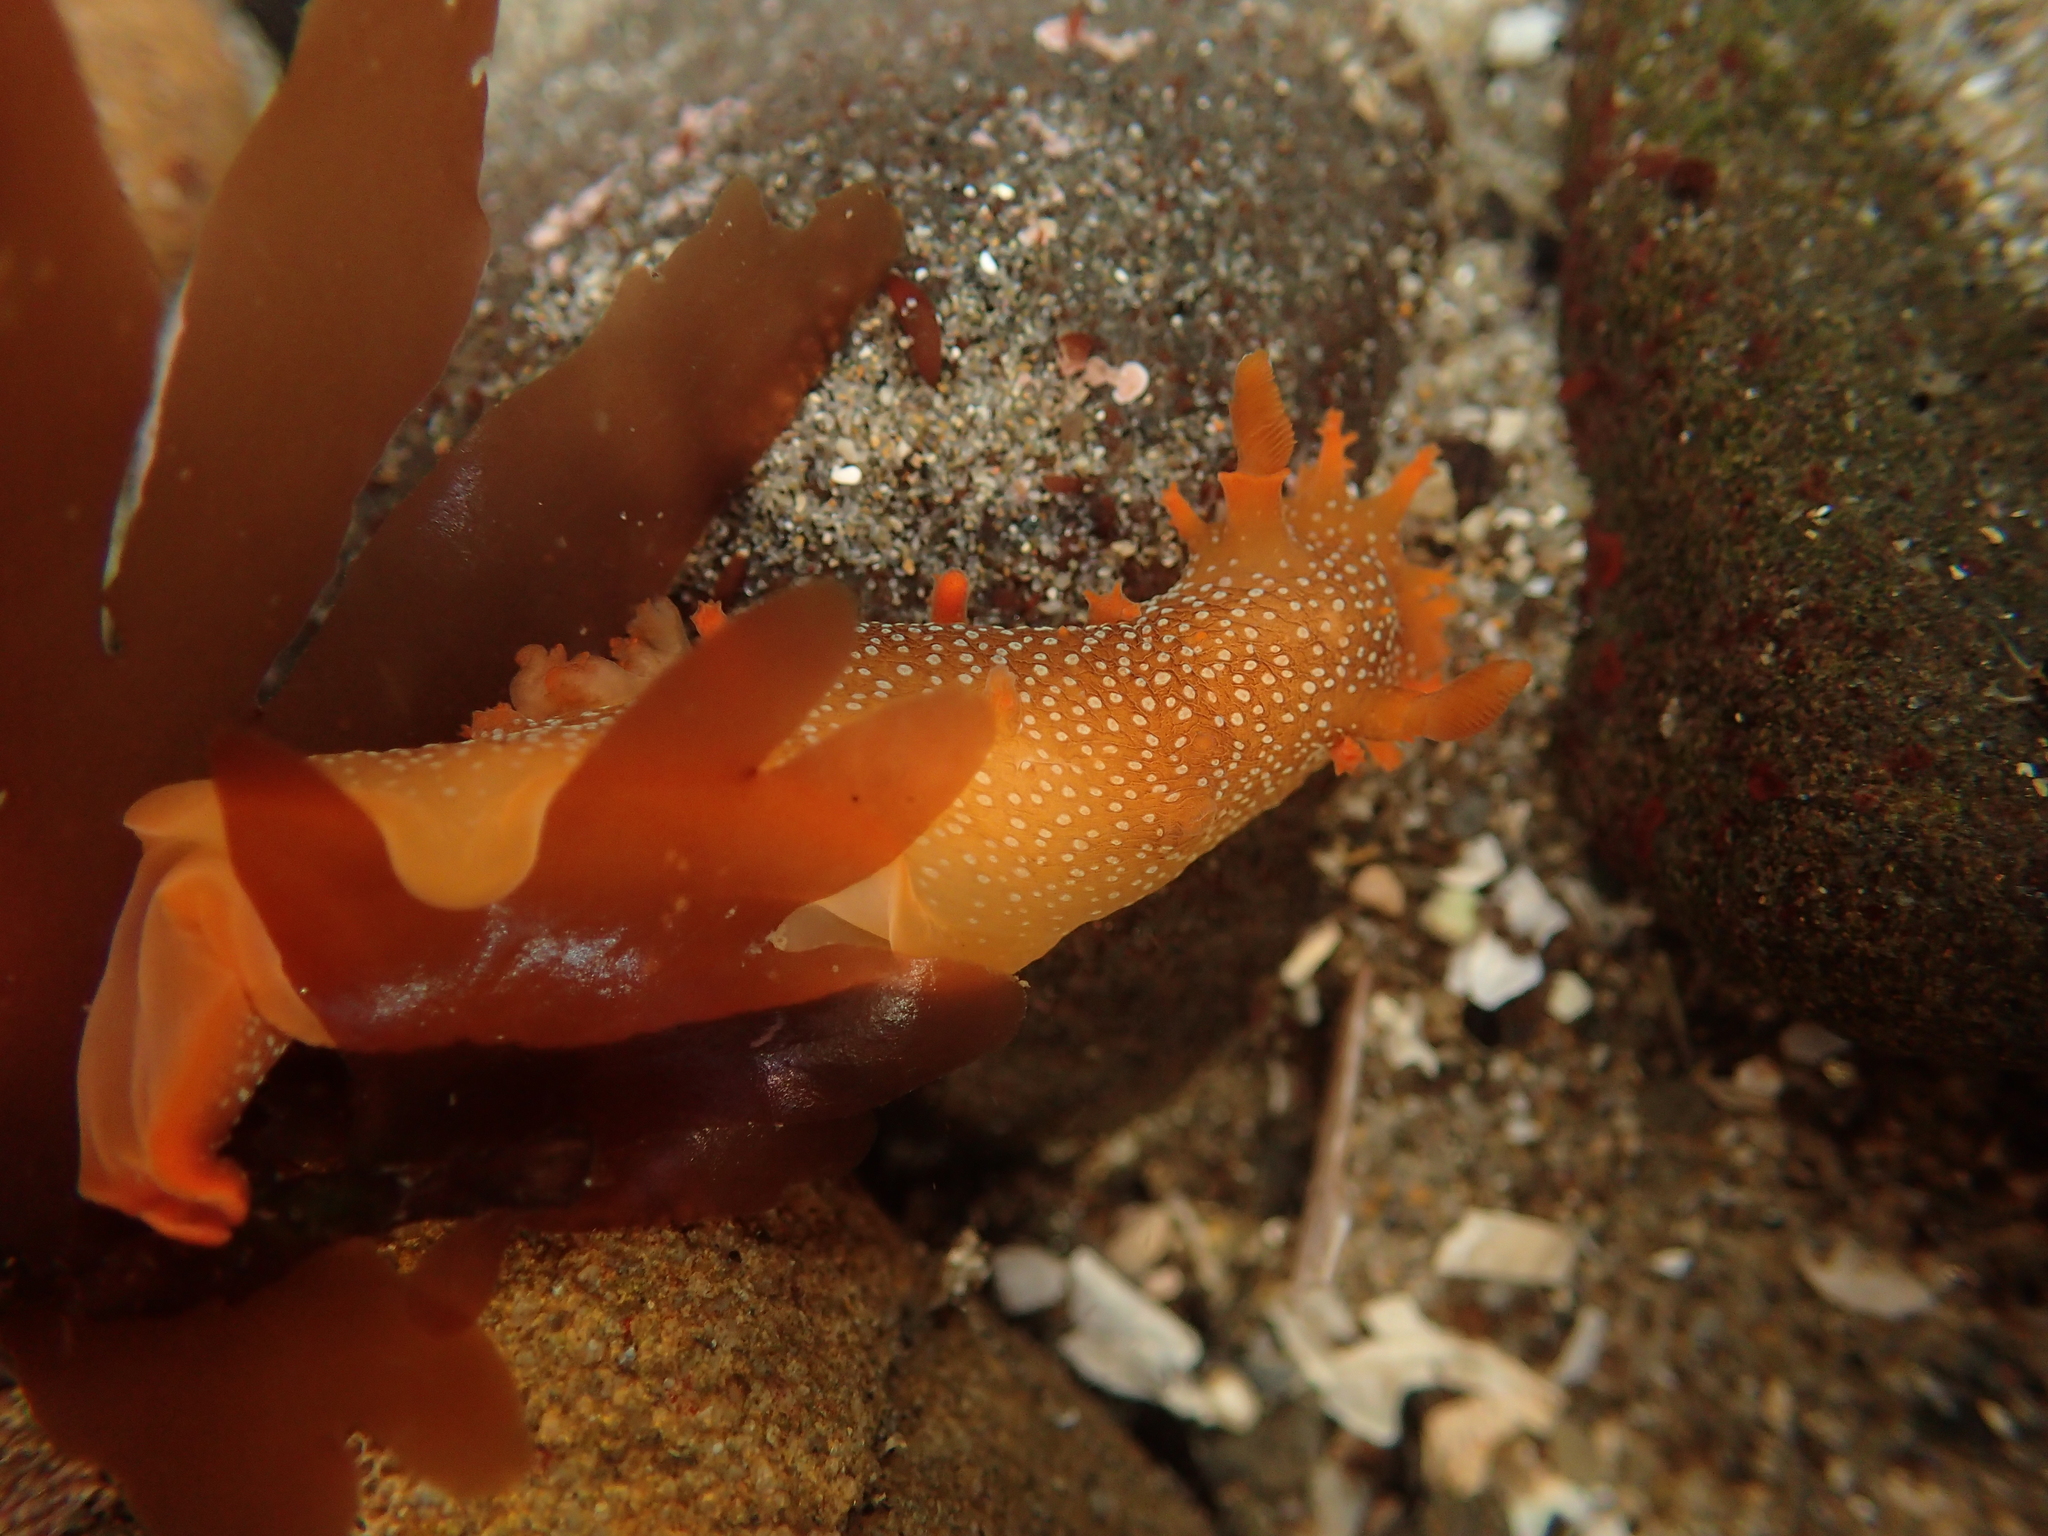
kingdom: Animalia
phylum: Mollusca
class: Gastropoda
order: Nudibranchia
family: Polyceridae
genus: Triopha
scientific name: Triopha maculata
